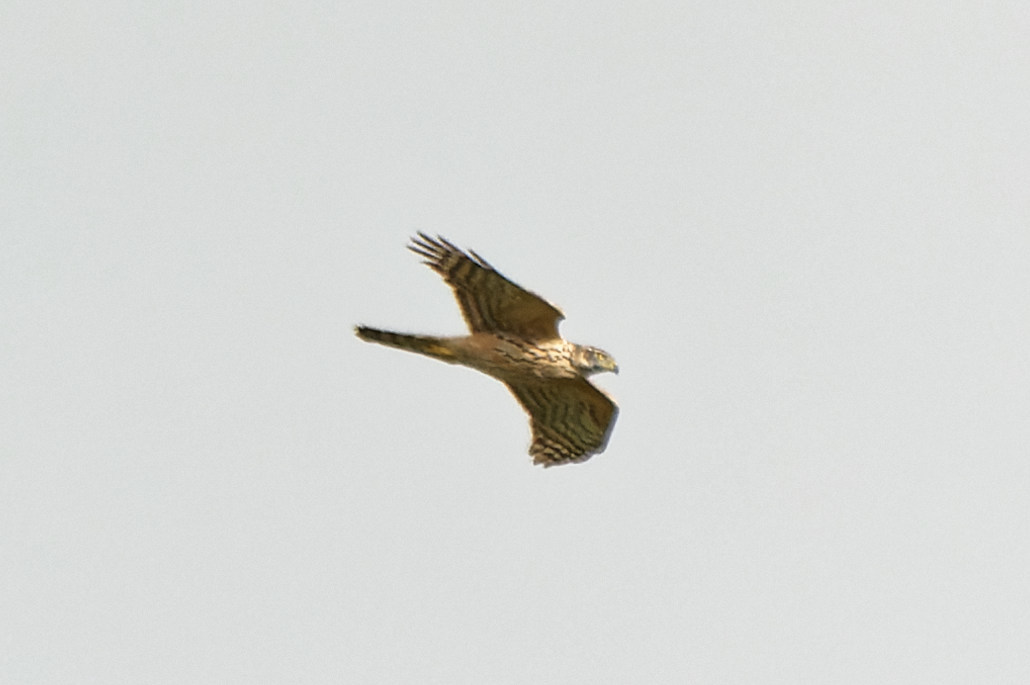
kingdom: Animalia
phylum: Chordata
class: Aves
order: Accipitriformes
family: Accipitridae
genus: Accipiter
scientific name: Accipiter gentilis
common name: Northern goshawk
